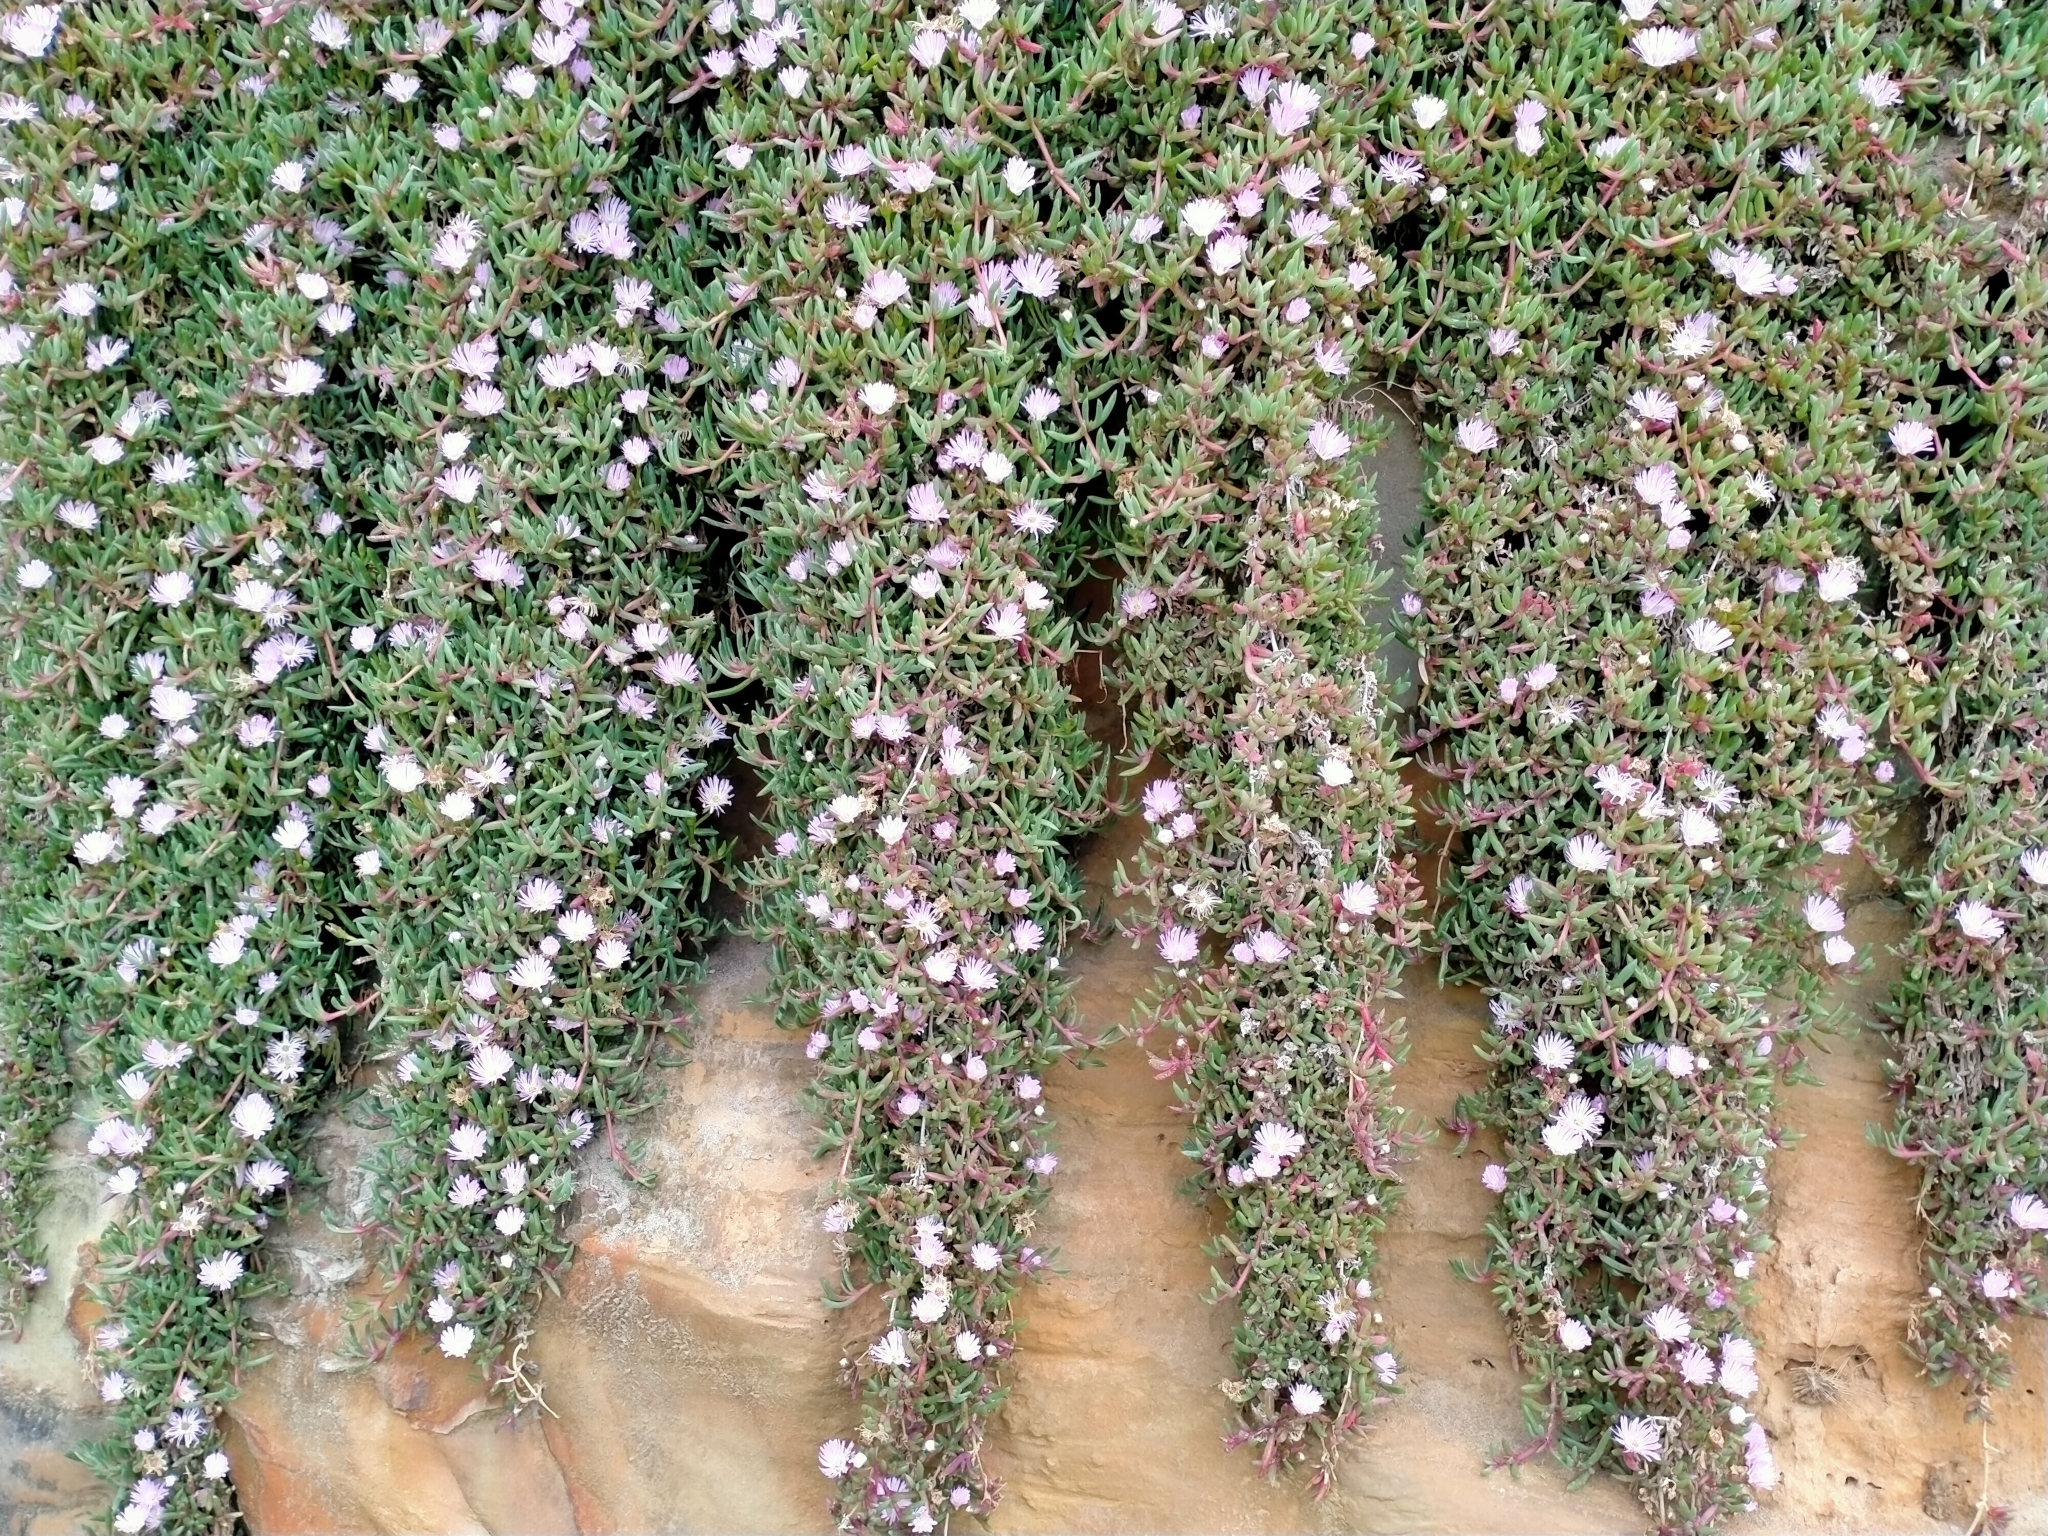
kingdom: Plantae
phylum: Tracheophyta
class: Magnoliopsida
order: Caryophyllales
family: Aizoaceae
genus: Disphyma
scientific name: Disphyma australe
